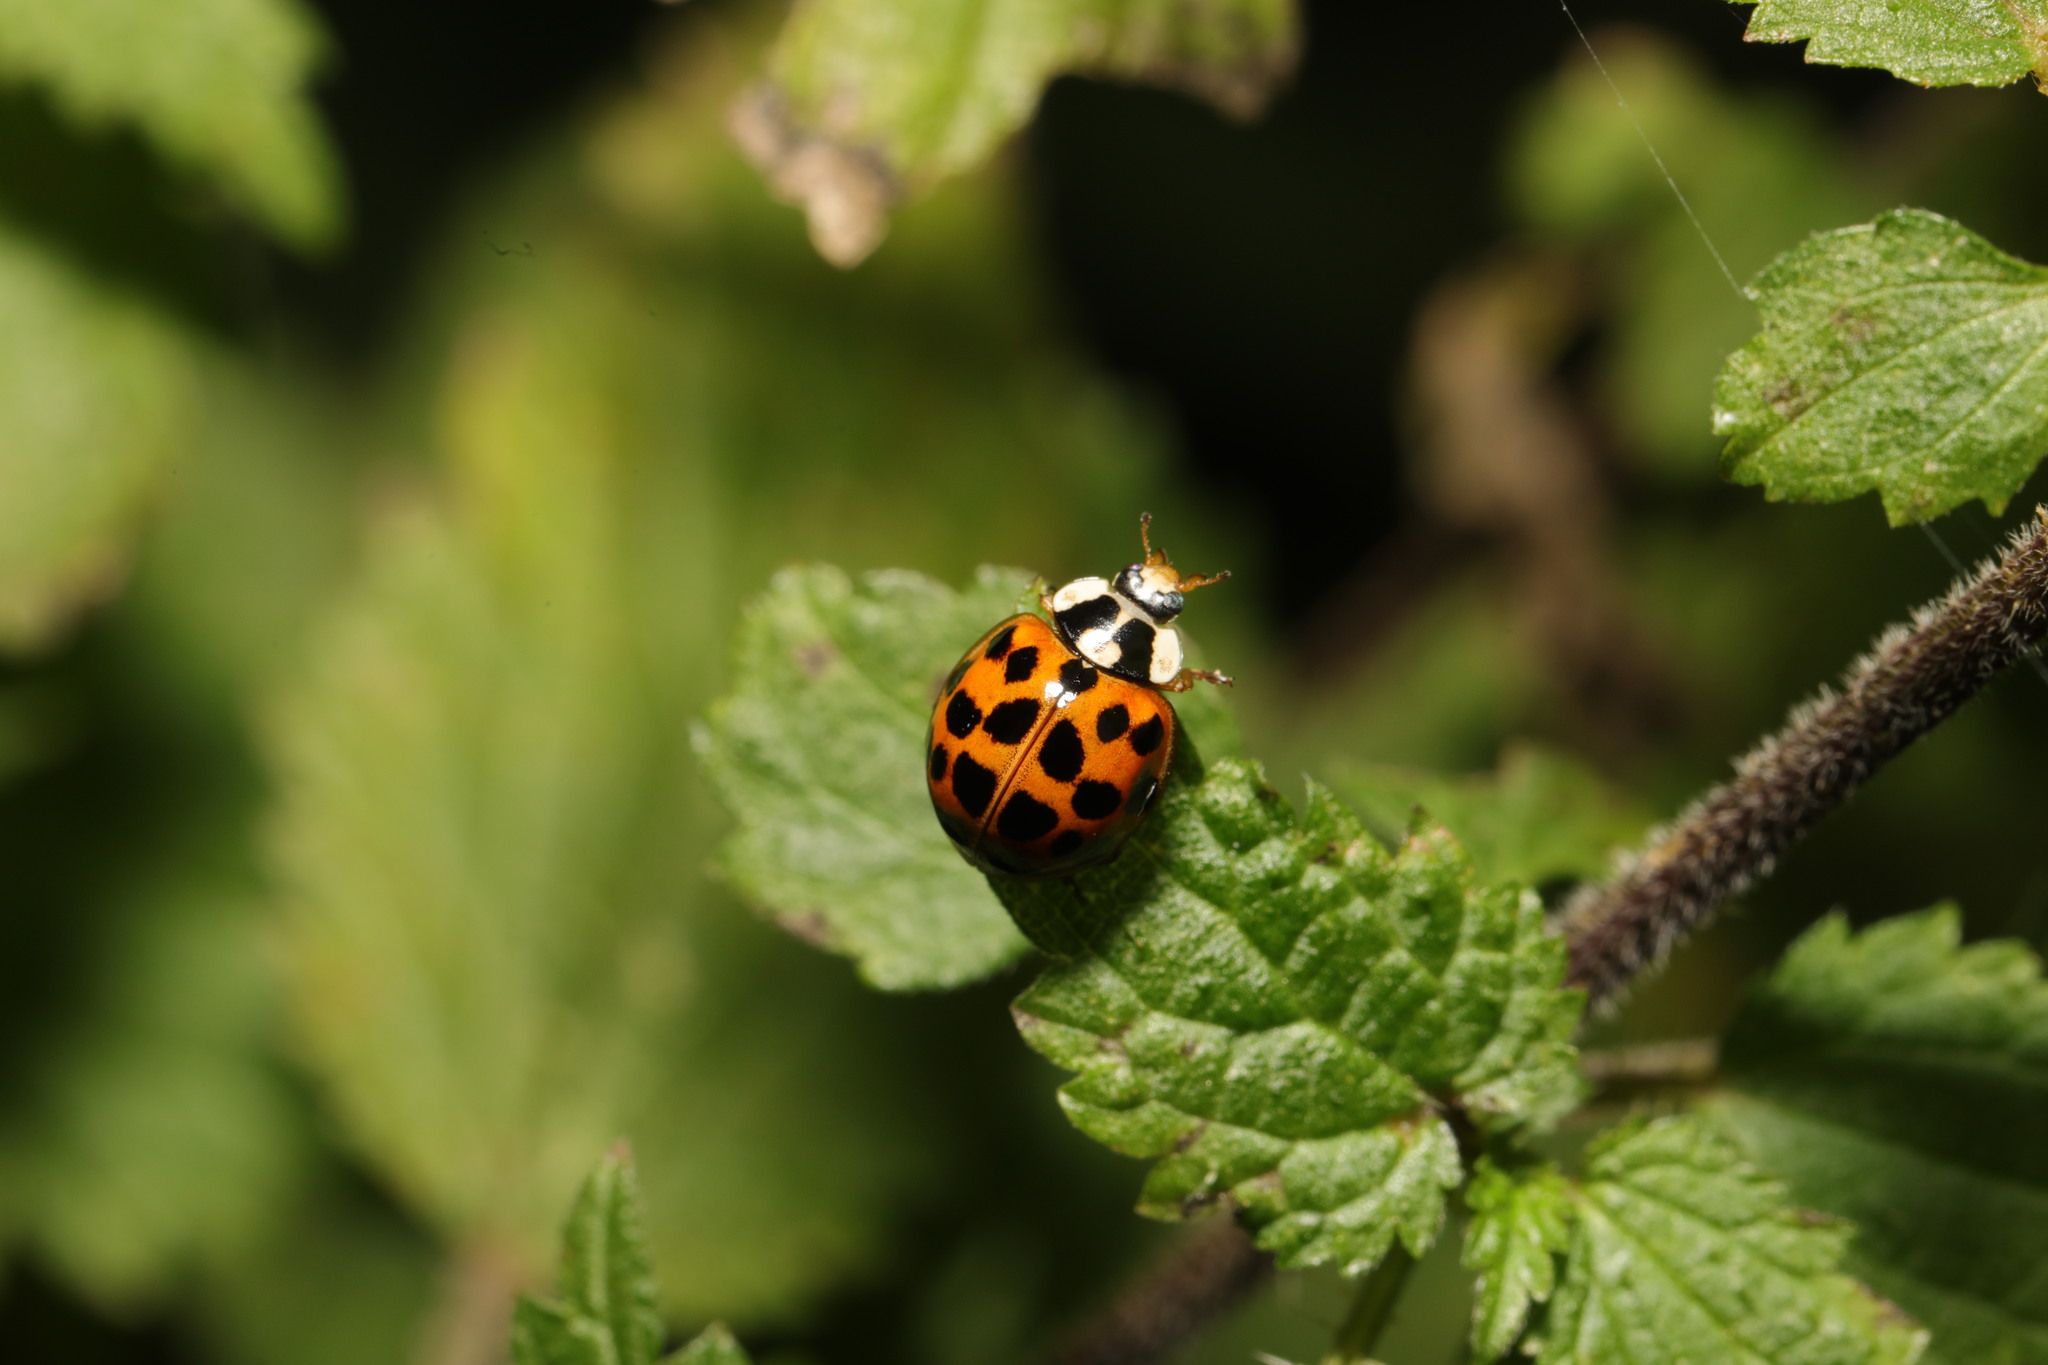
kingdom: Animalia
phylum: Arthropoda
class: Insecta
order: Coleoptera
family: Coccinellidae
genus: Harmonia
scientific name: Harmonia axyridis
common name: Harlequin ladybird
